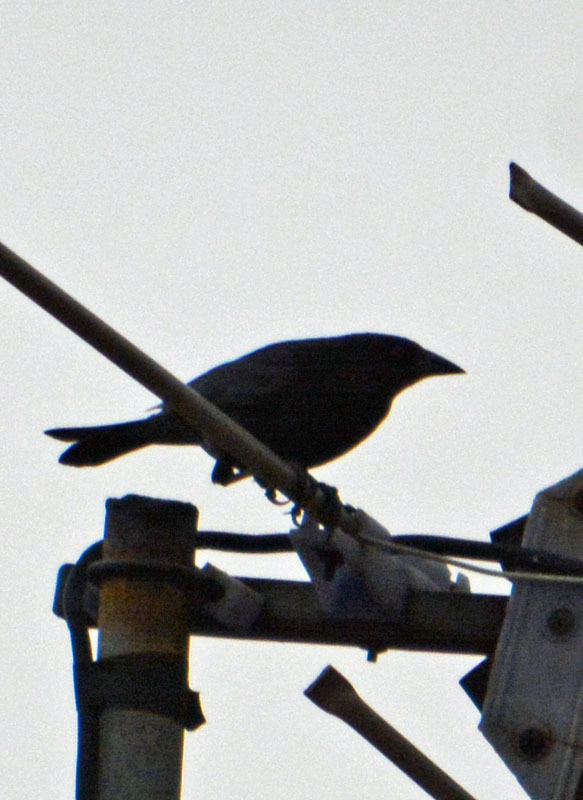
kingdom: Animalia
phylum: Chordata
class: Aves
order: Passeriformes
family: Icteridae
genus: Molothrus
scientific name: Molothrus aeneus
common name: Bronzed cowbird
